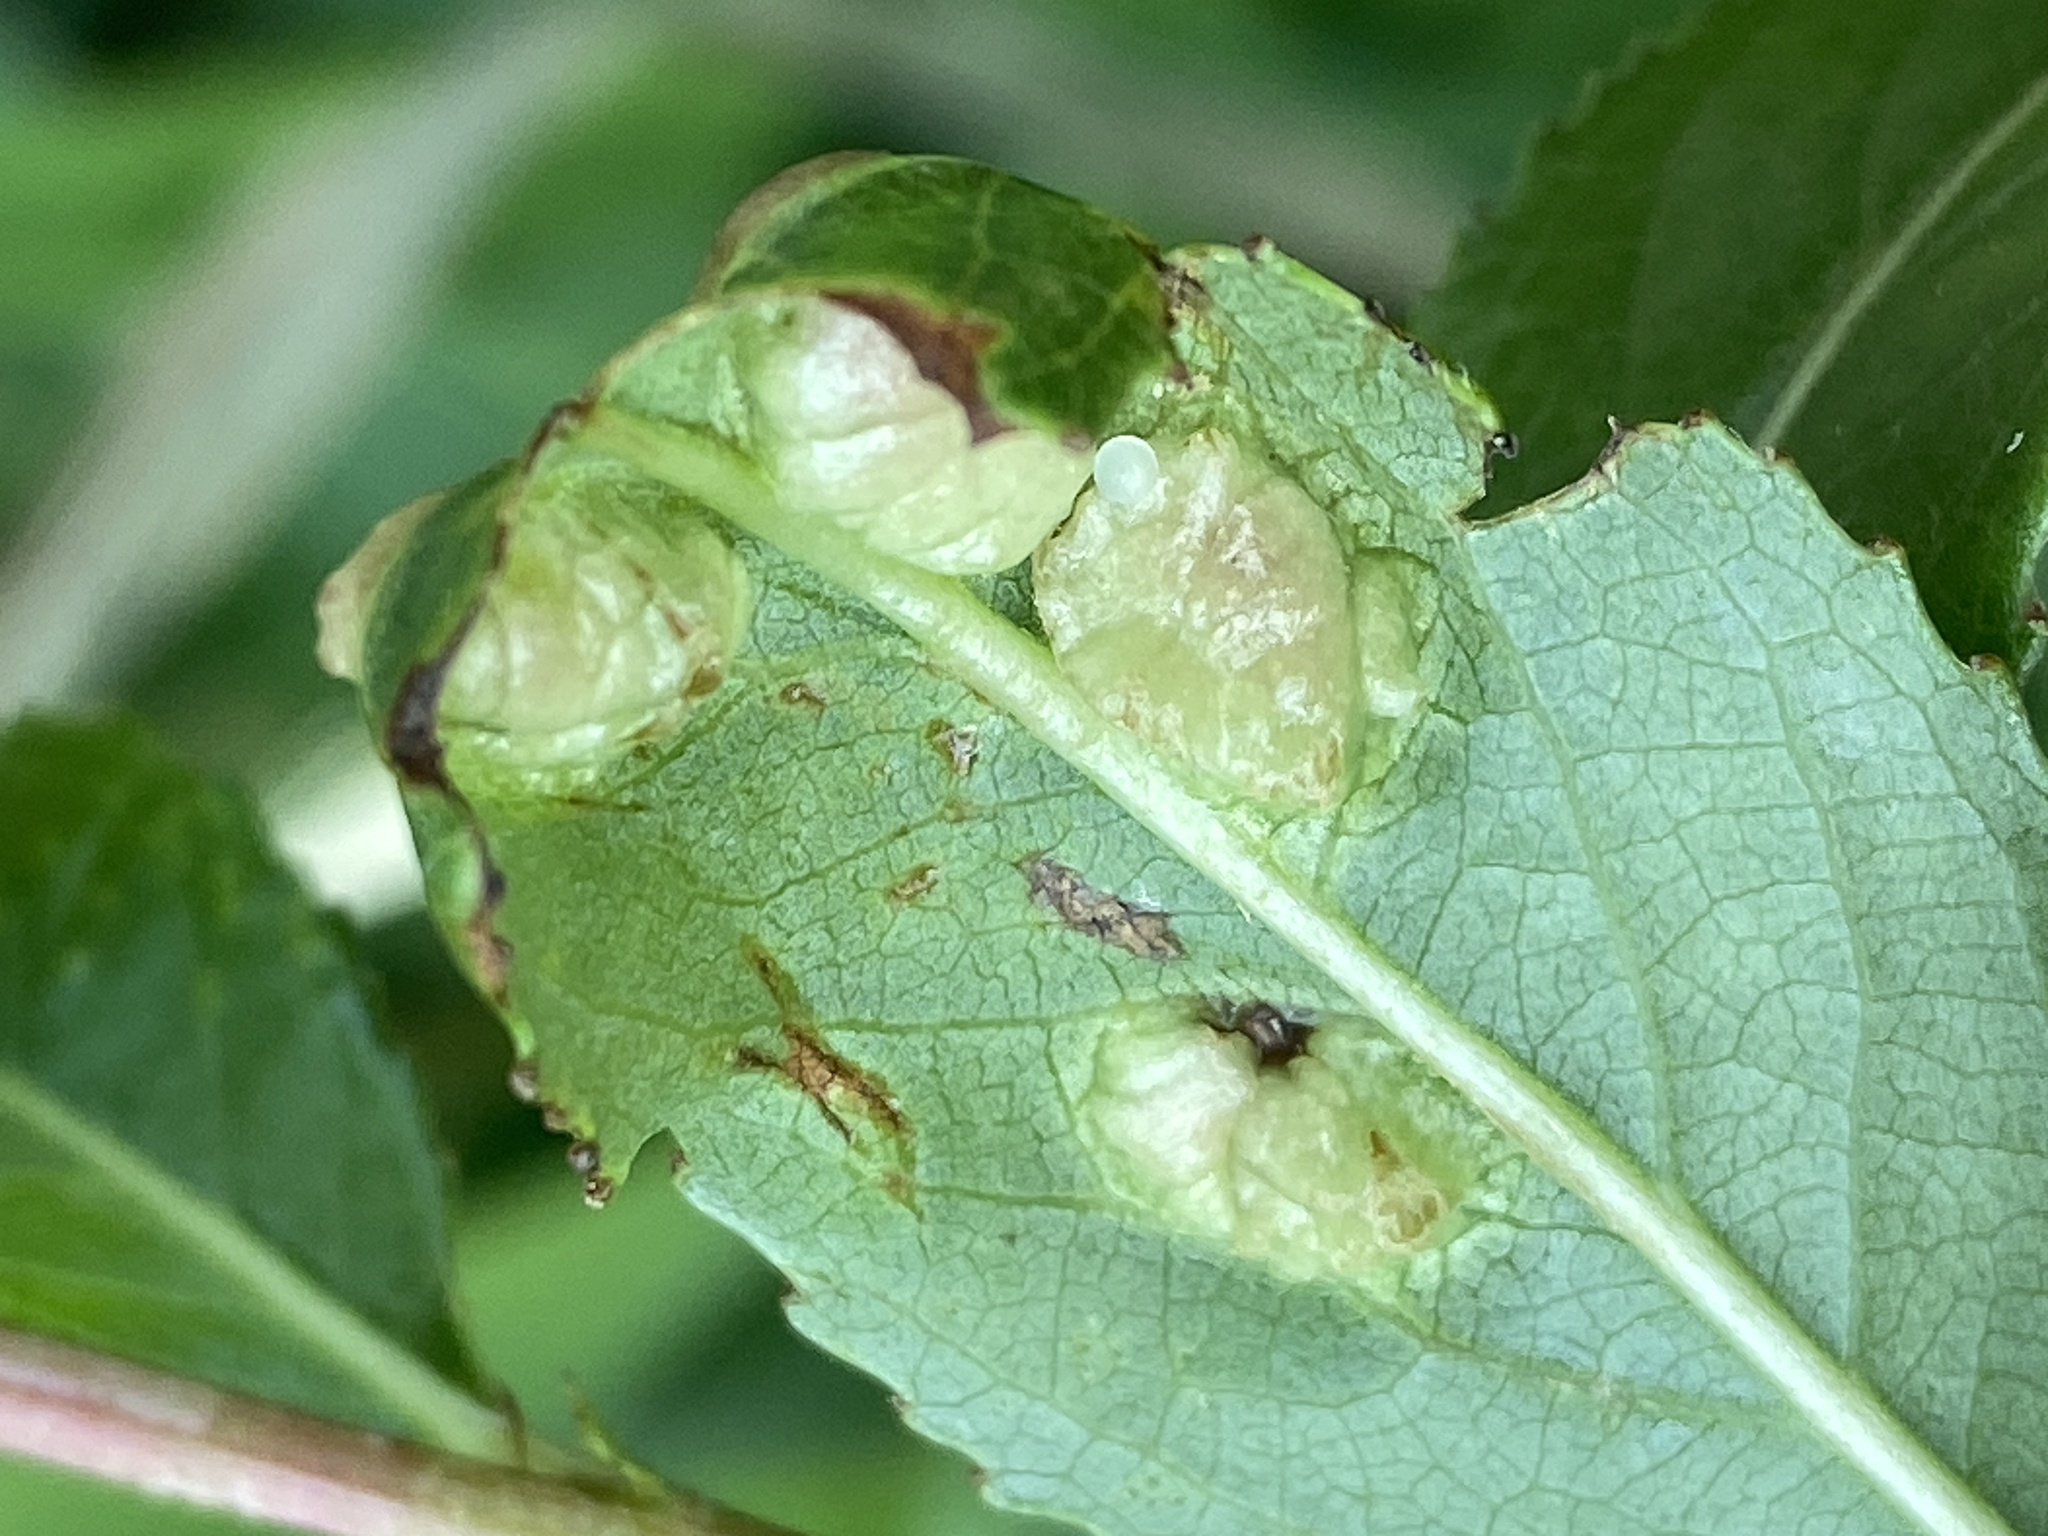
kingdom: Animalia
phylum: Arthropoda
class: Insecta
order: Hymenoptera
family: Tenthredinidae
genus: Pontania
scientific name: Pontania proxima
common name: Common sawfly
